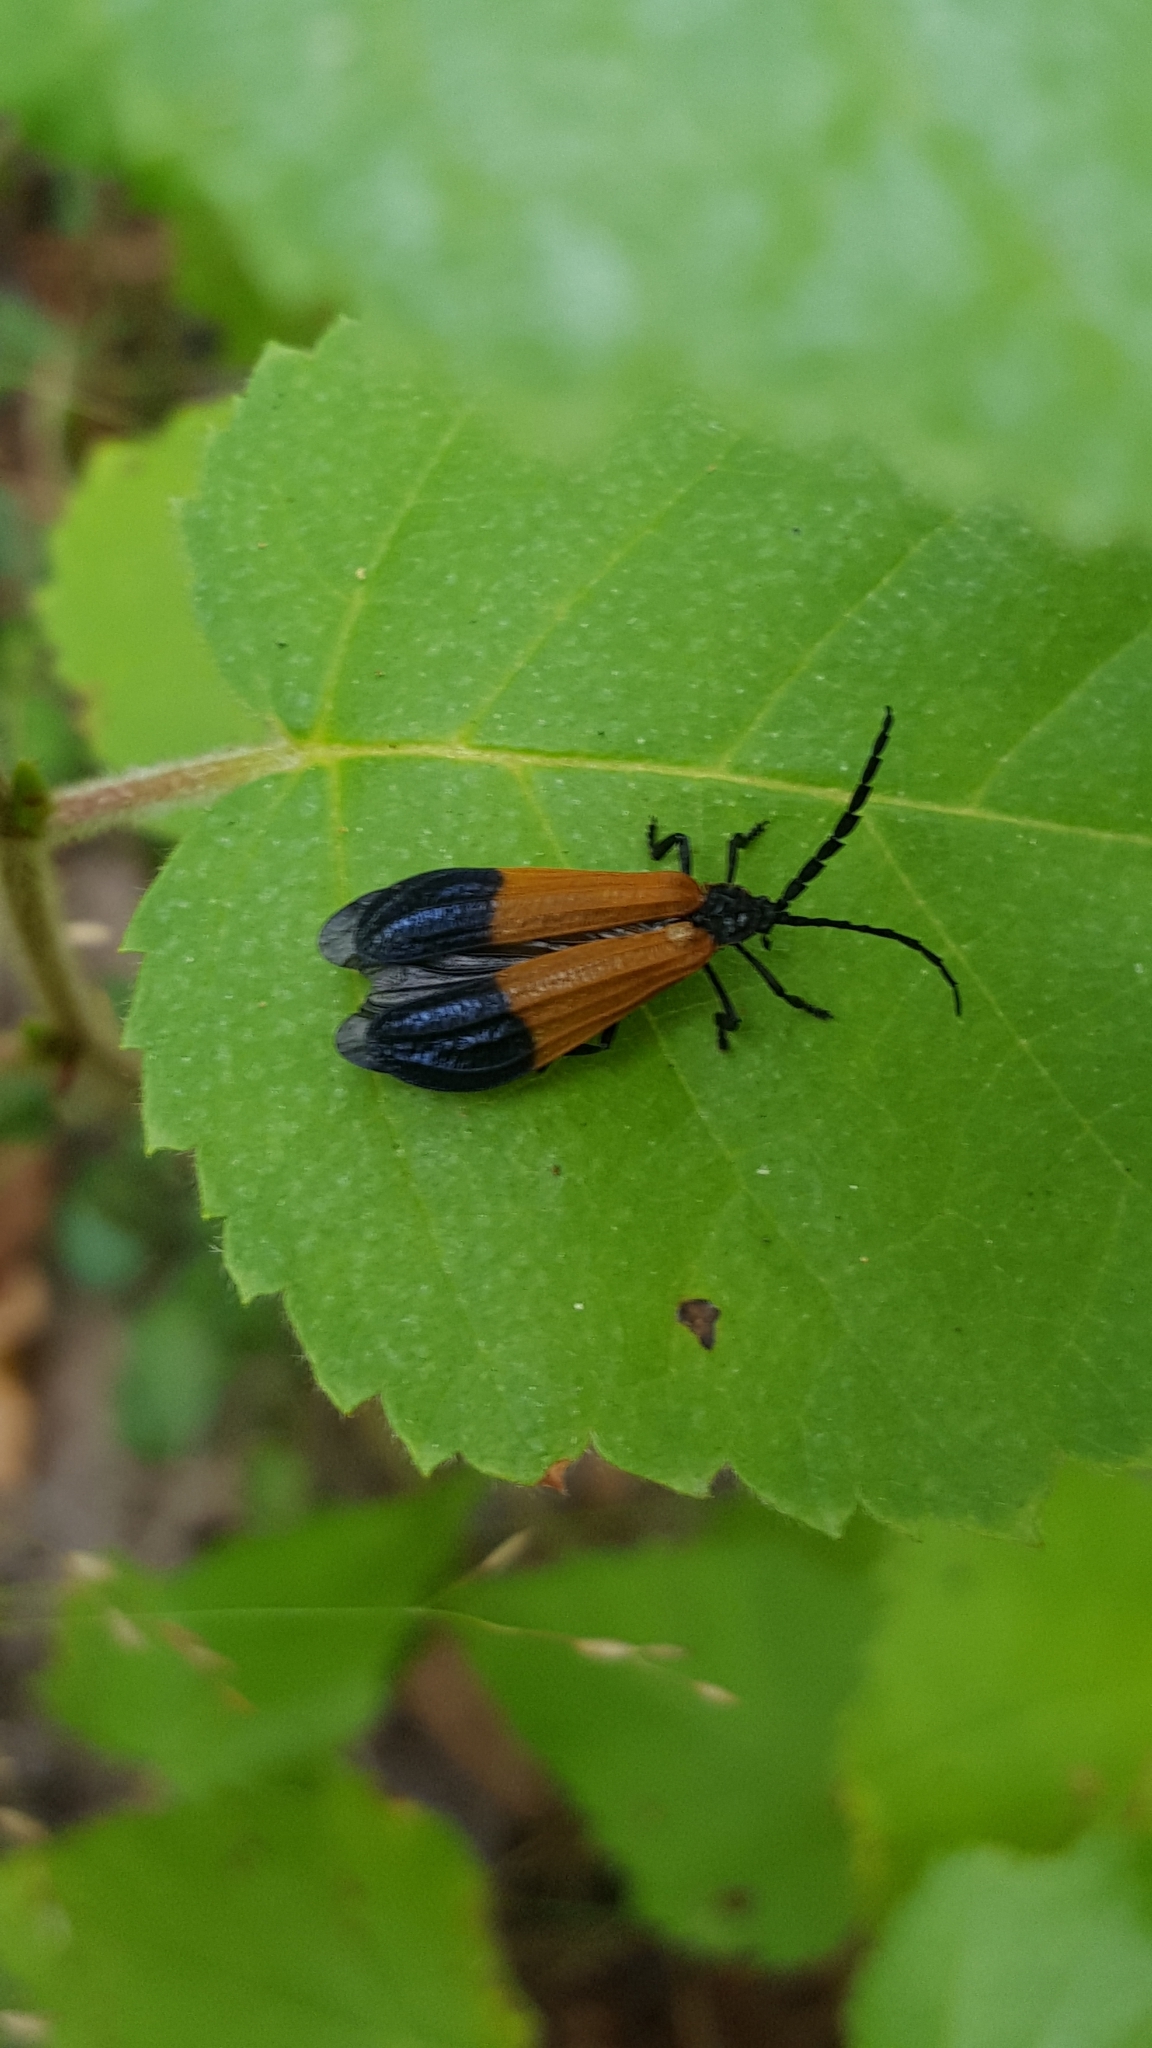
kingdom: Animalia
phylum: Arthropoda
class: Insecta
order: Coleoptera
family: Lycidae
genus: Calopteron
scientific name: Calopteron terminale
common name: End band net-winged beetle
